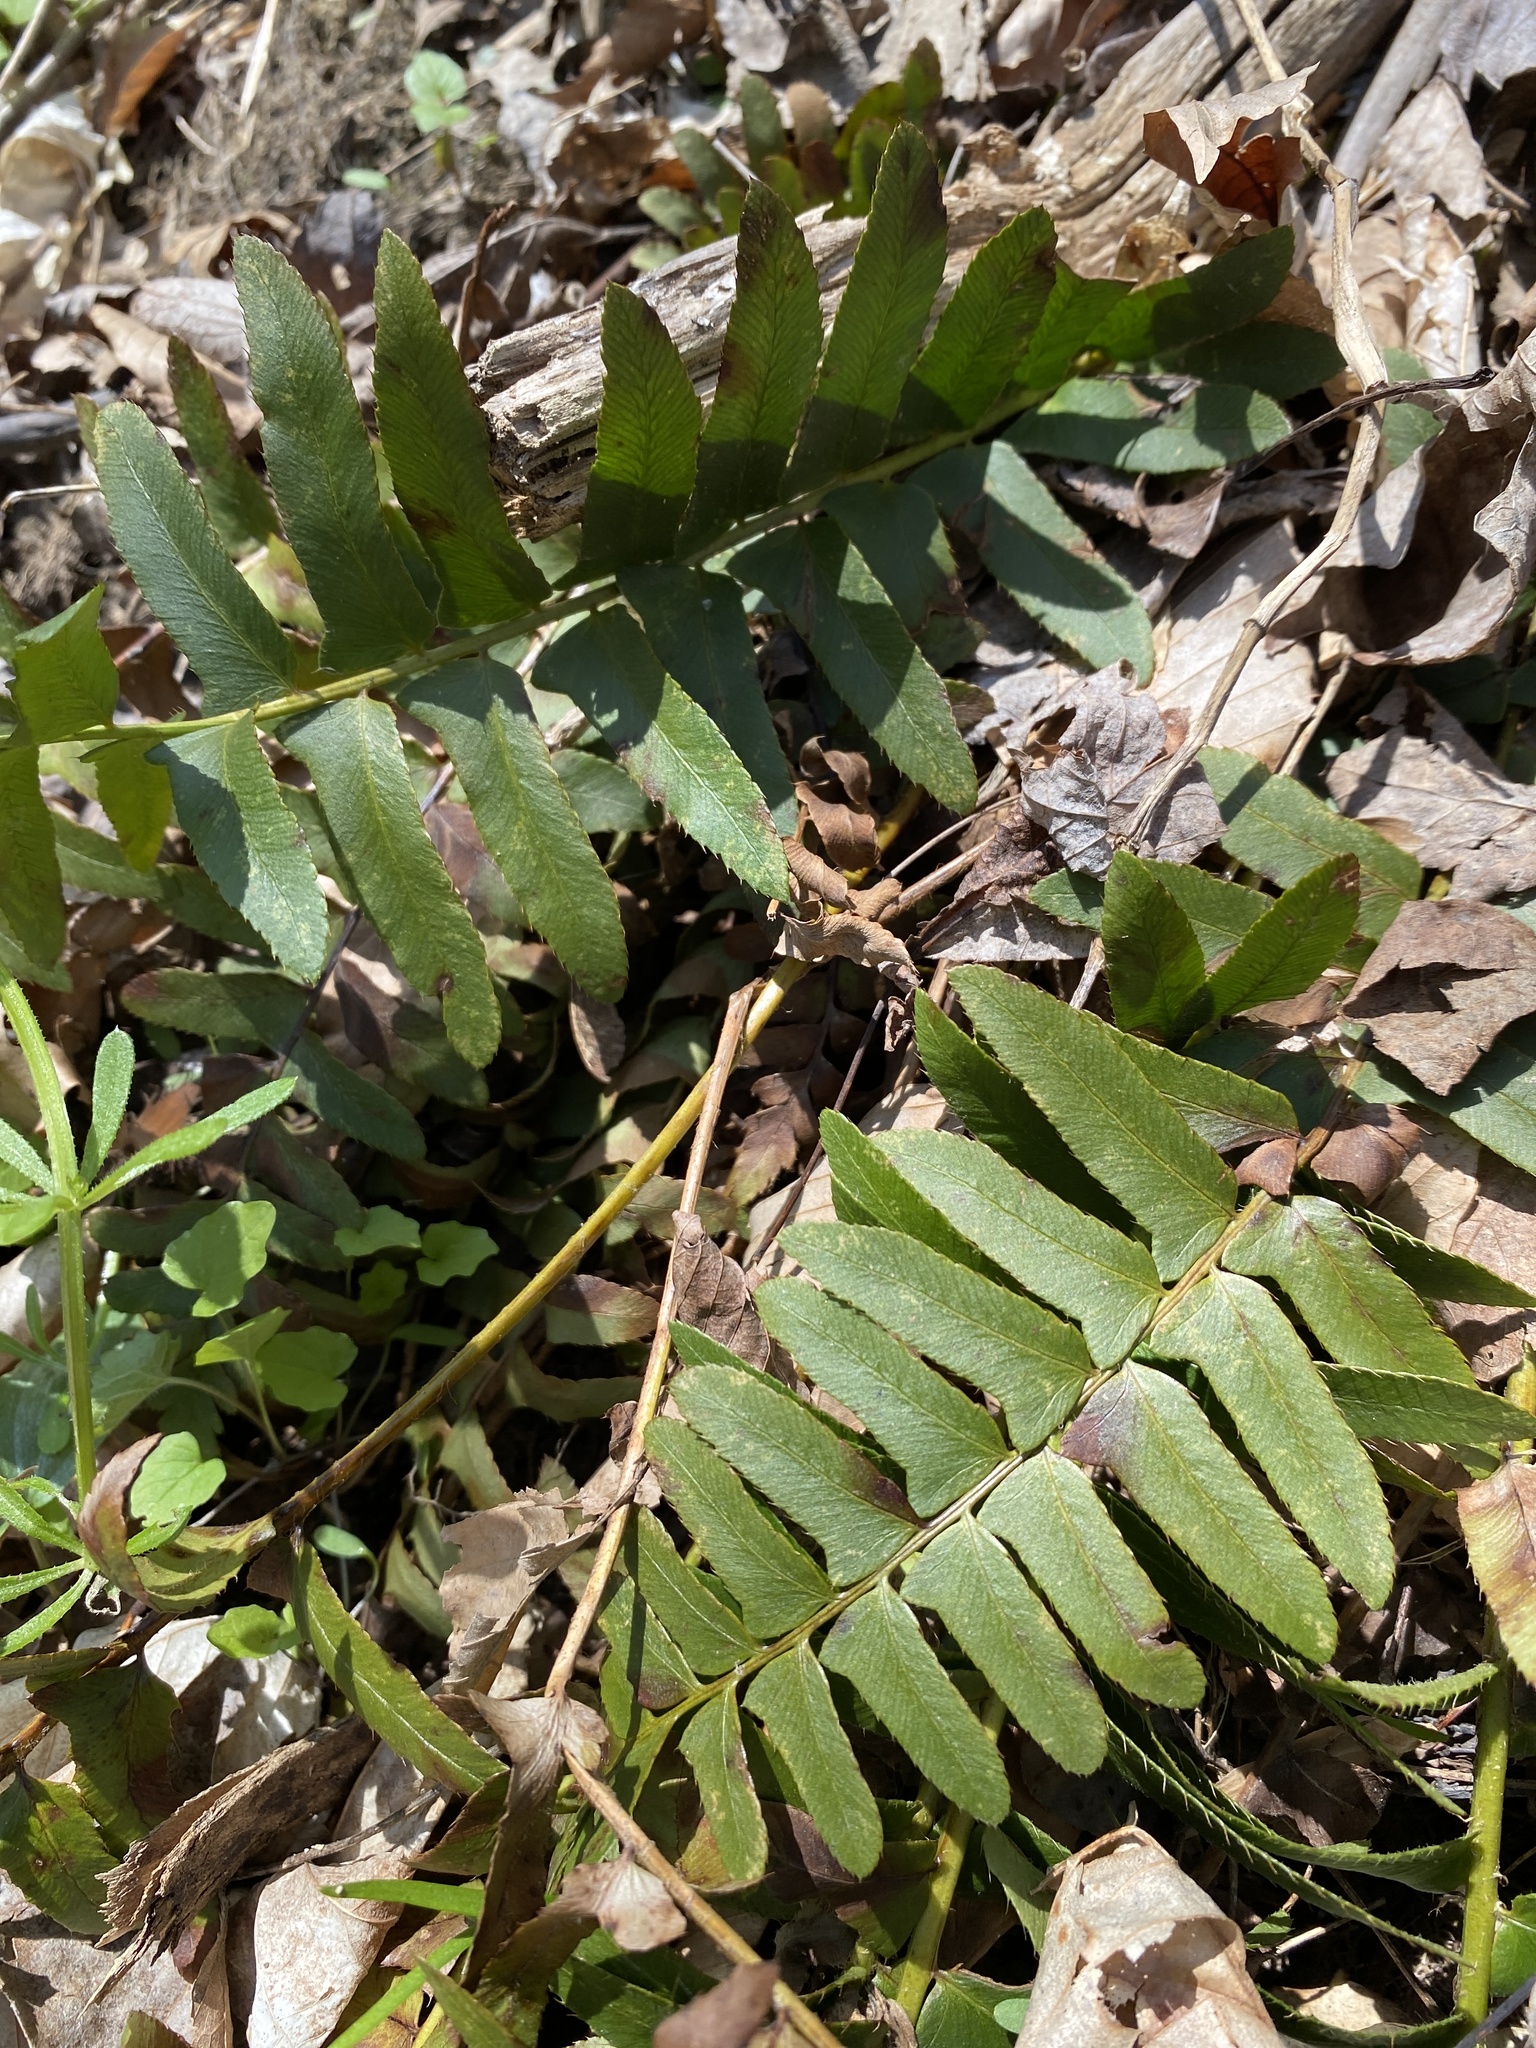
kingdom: Plantae
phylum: Tracheophyta
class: Polypodiopsida
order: Polypodiales
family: Dryopteridaceae
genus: Polystichum
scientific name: Polystichum acrostichoides
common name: Christmas fern
